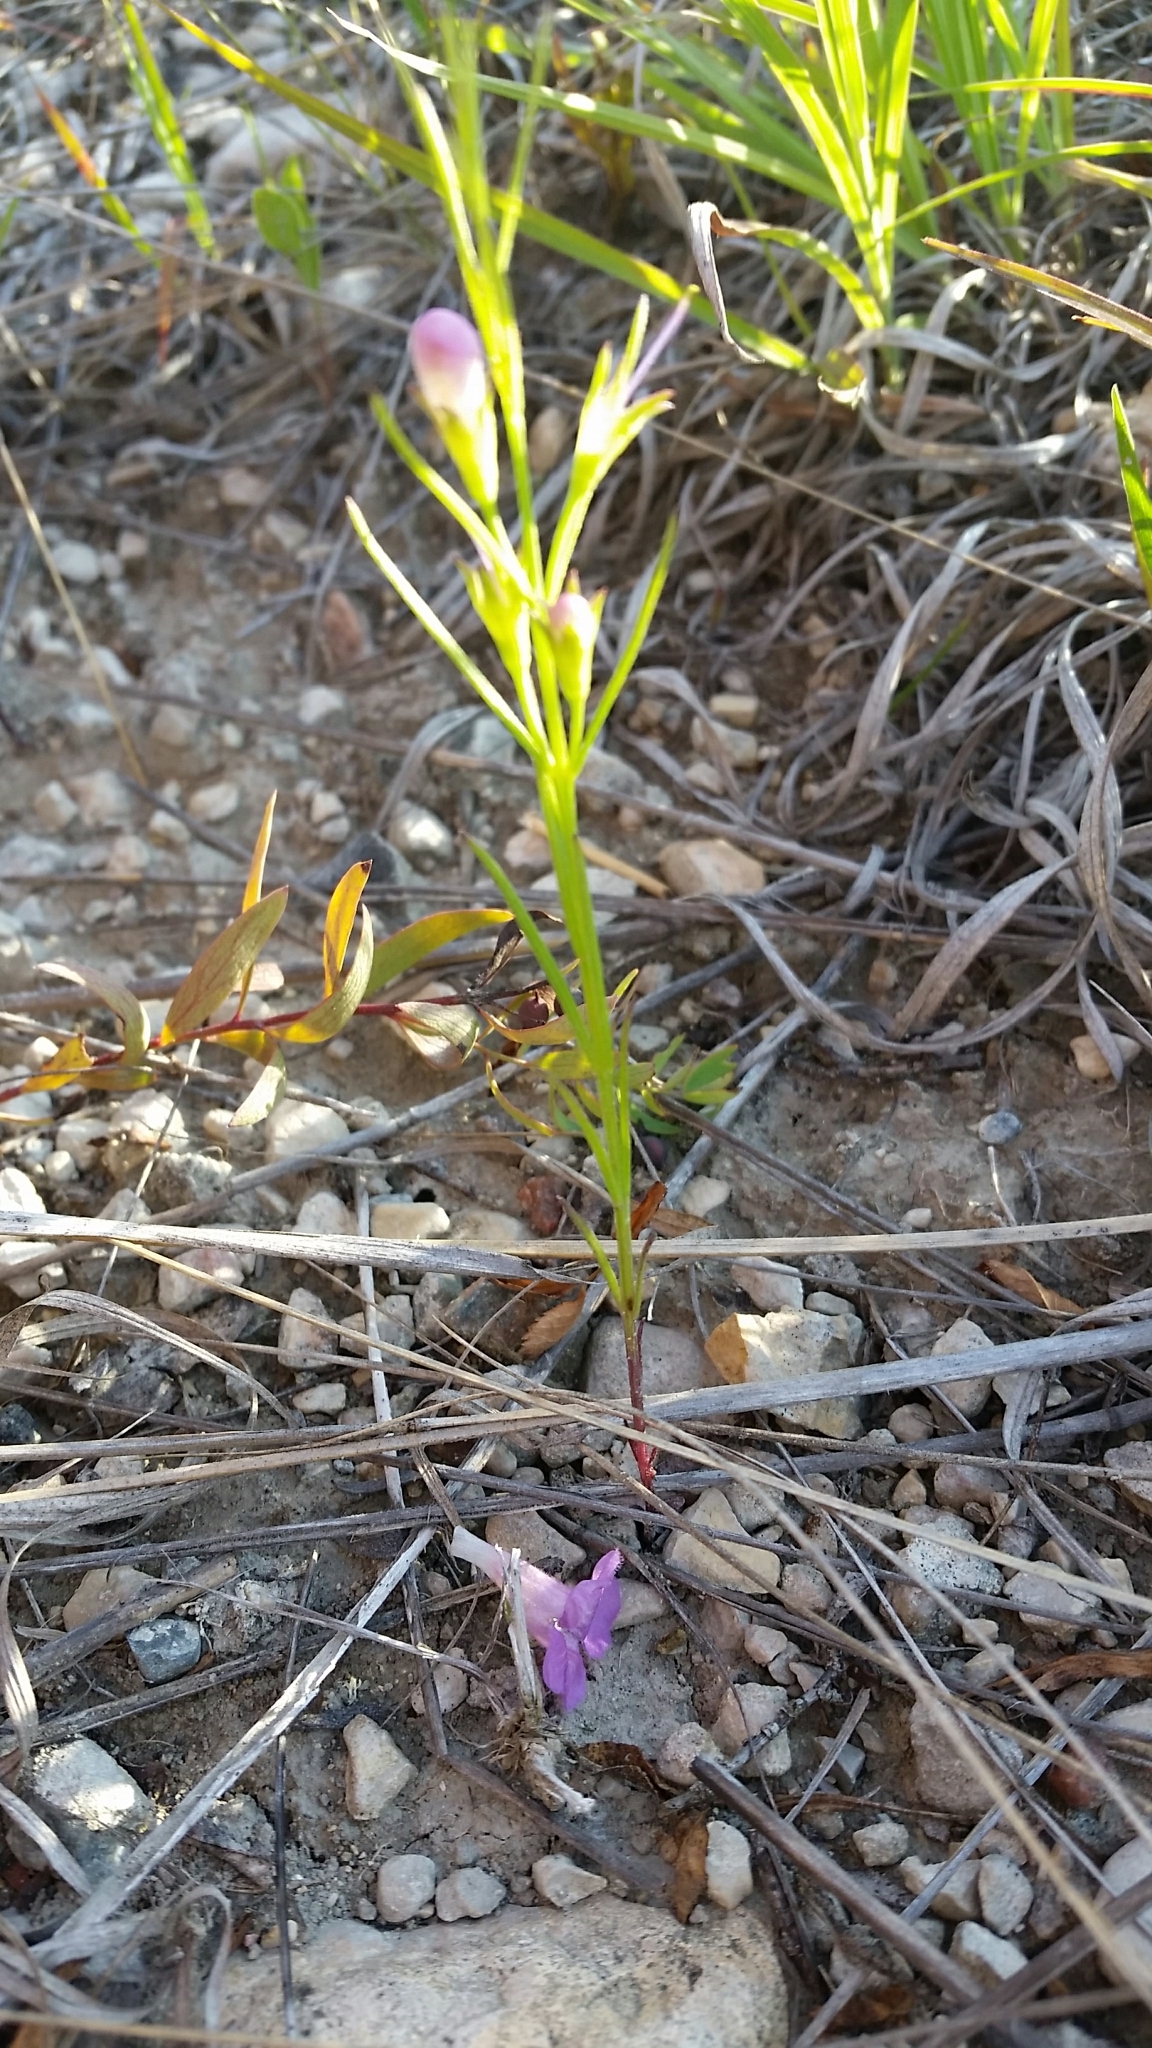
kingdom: Plantae
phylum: Tracheophyta
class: Magnoliopsida
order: Lamiales
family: Orobanchaceae
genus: Agalinis
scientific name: Agalinis aspera
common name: Rough agalinis
